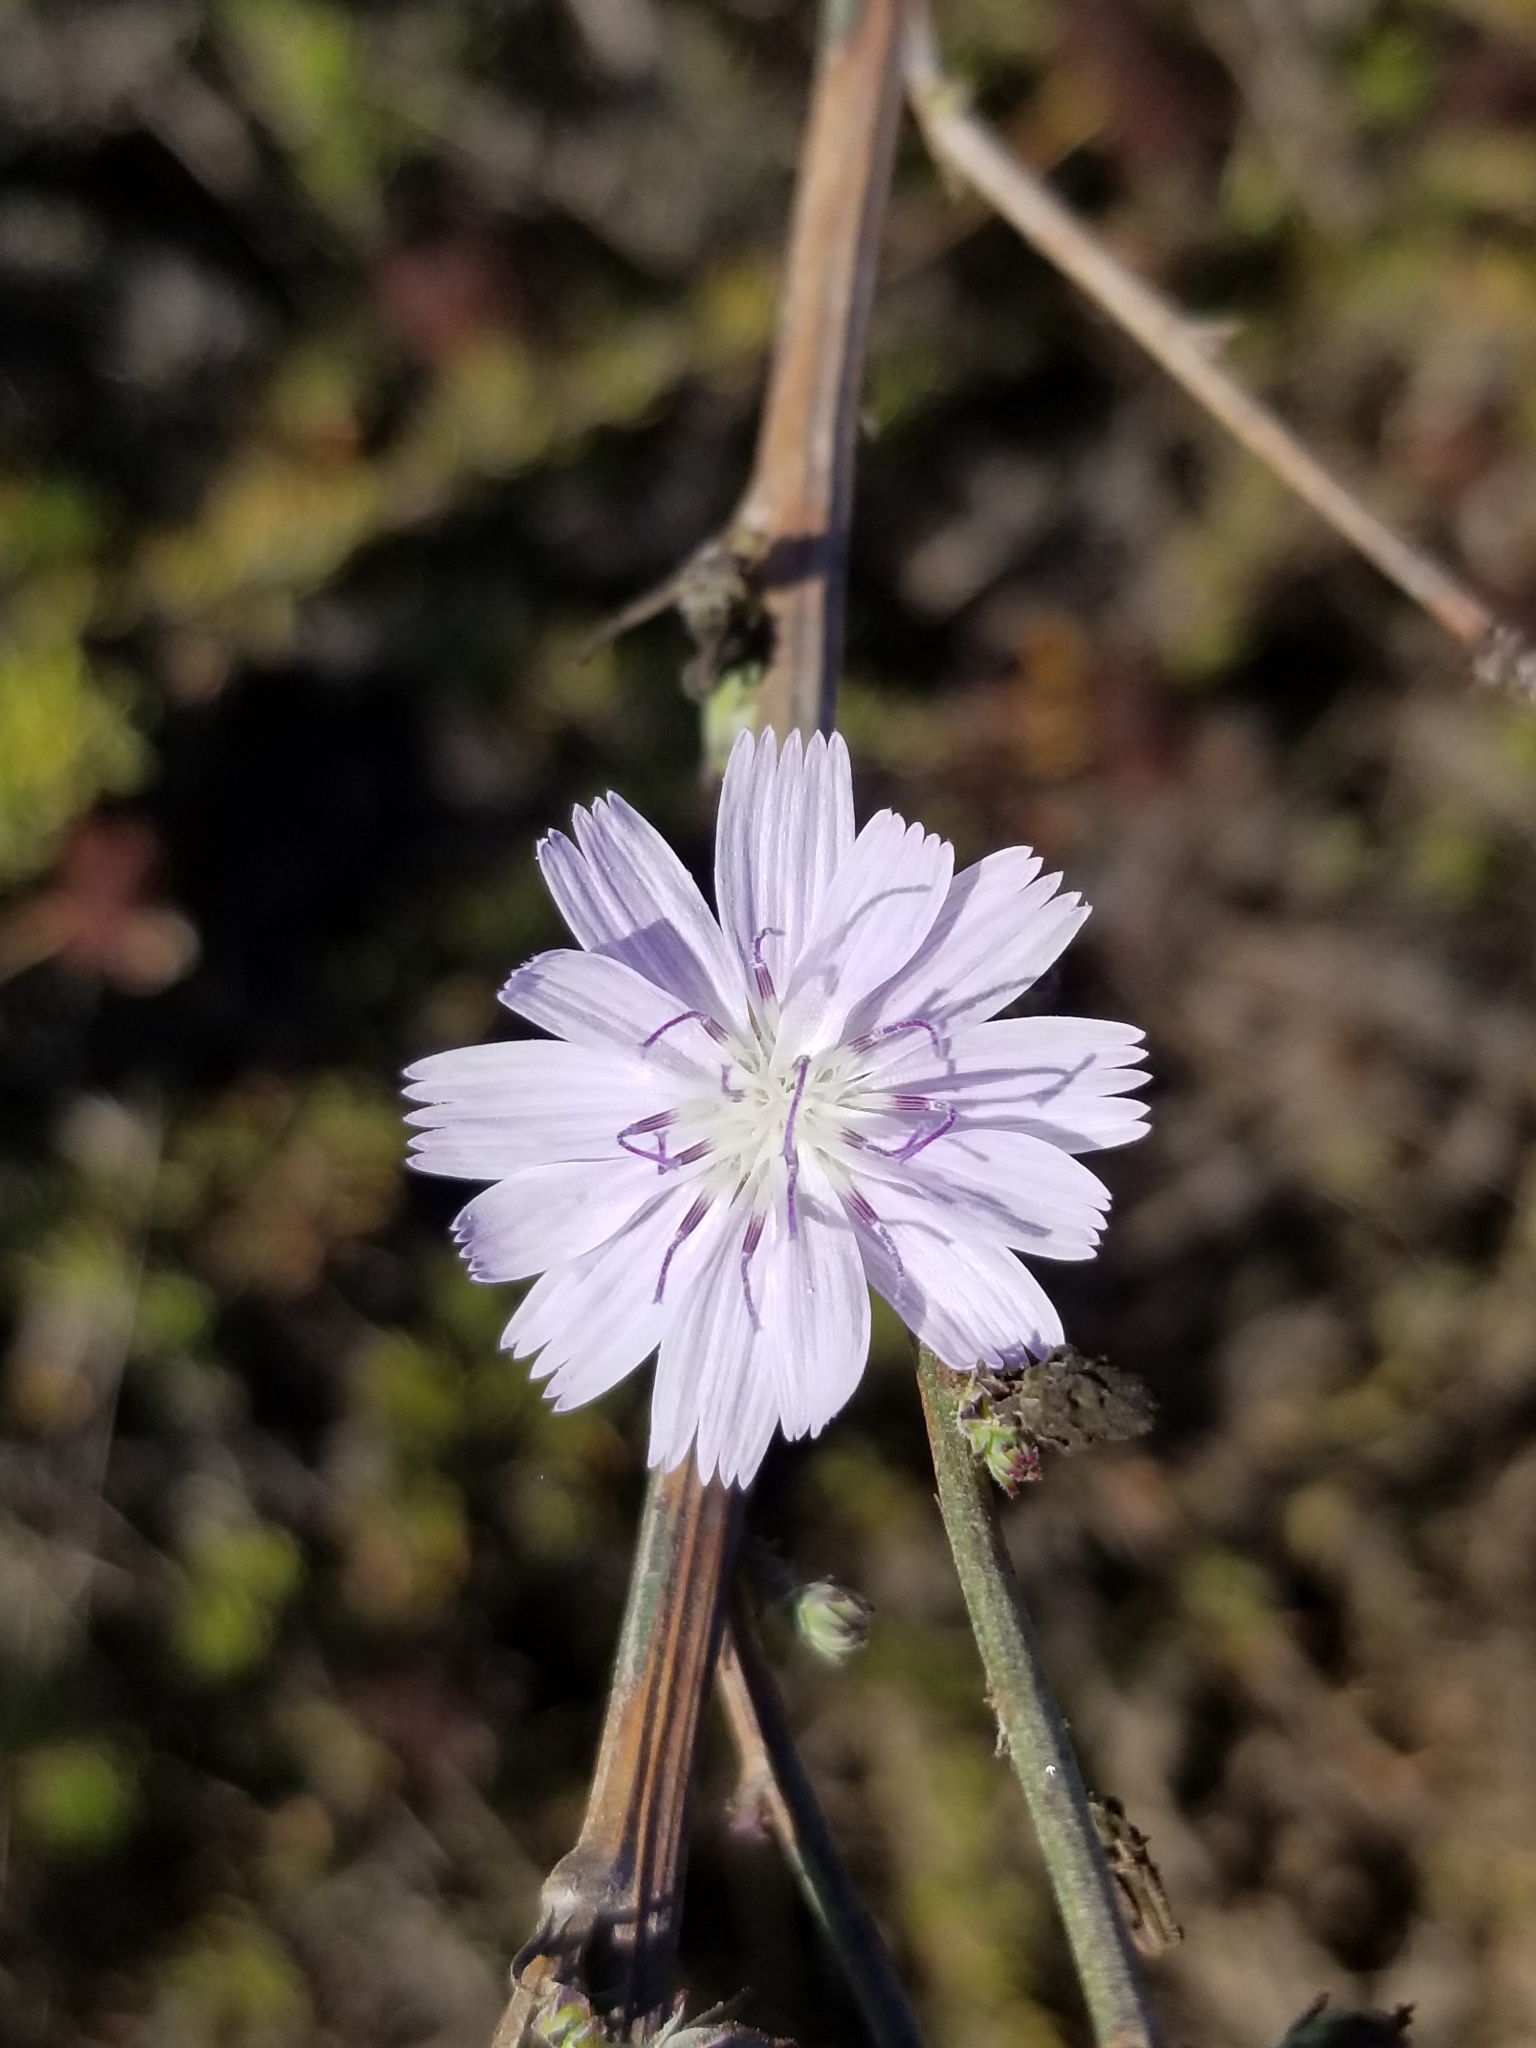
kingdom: Plantae
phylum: Tracheophyta
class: Magnoliopsida
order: Asterales
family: Asteraceae
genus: Stephanomeria
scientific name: Stephanomeria diegensis
